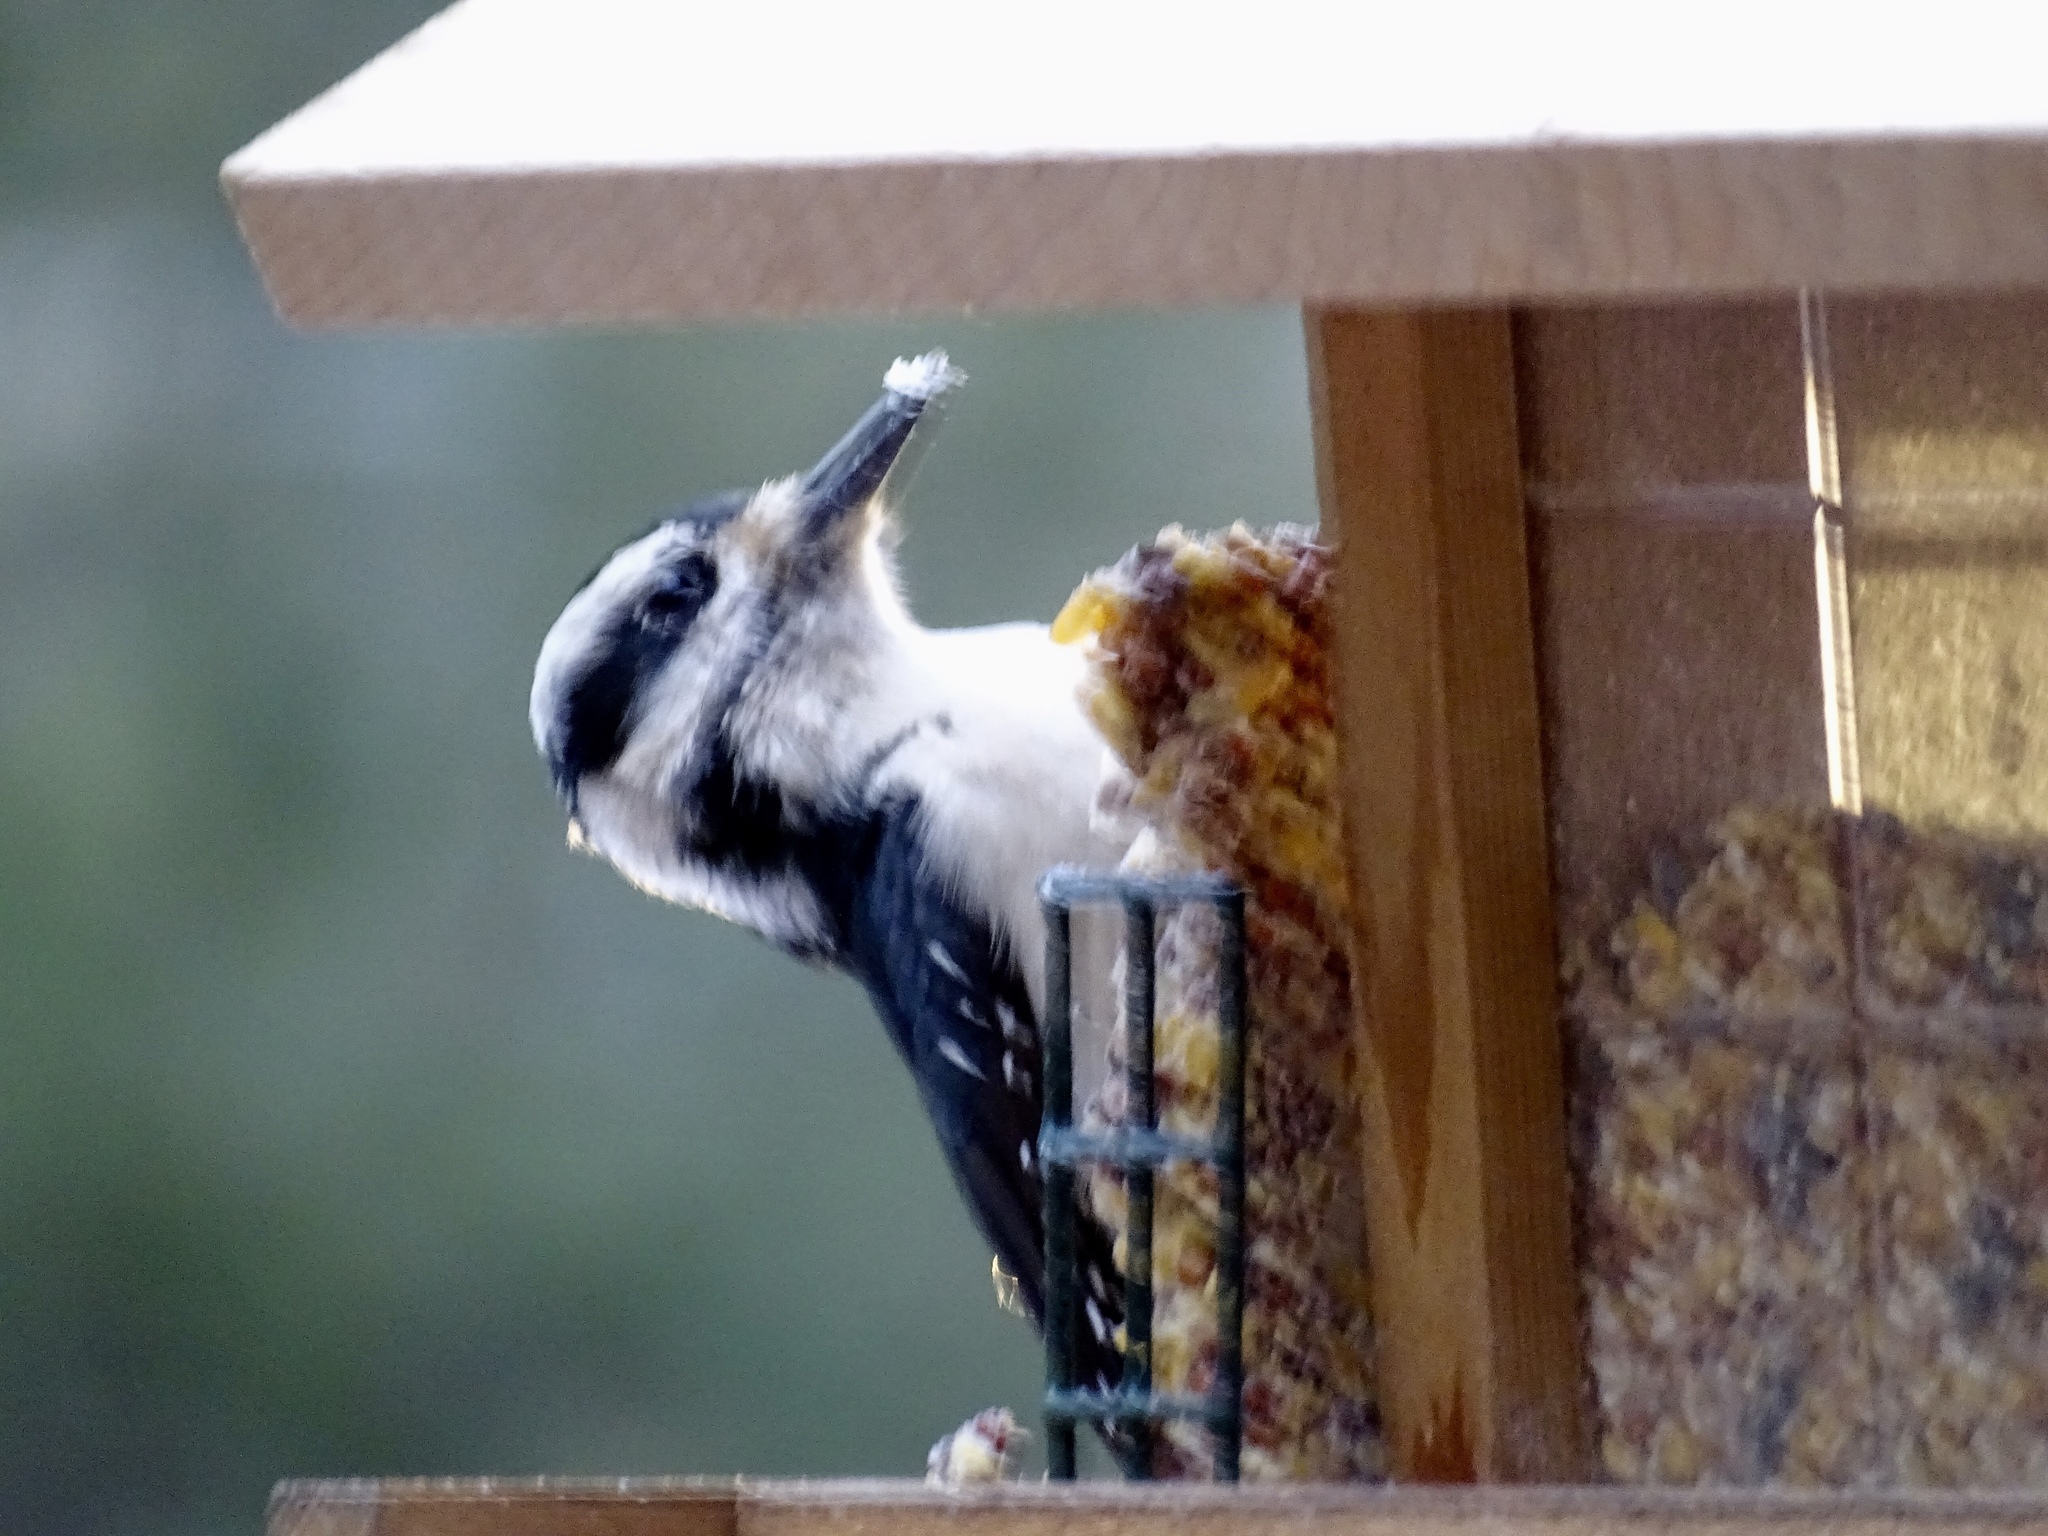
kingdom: Animalia
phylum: Chordata
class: Aves
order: Piciformes
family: Picidae
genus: Leuconotopicus
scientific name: Leuconotopicus villosus
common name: Hairy woodpecker
